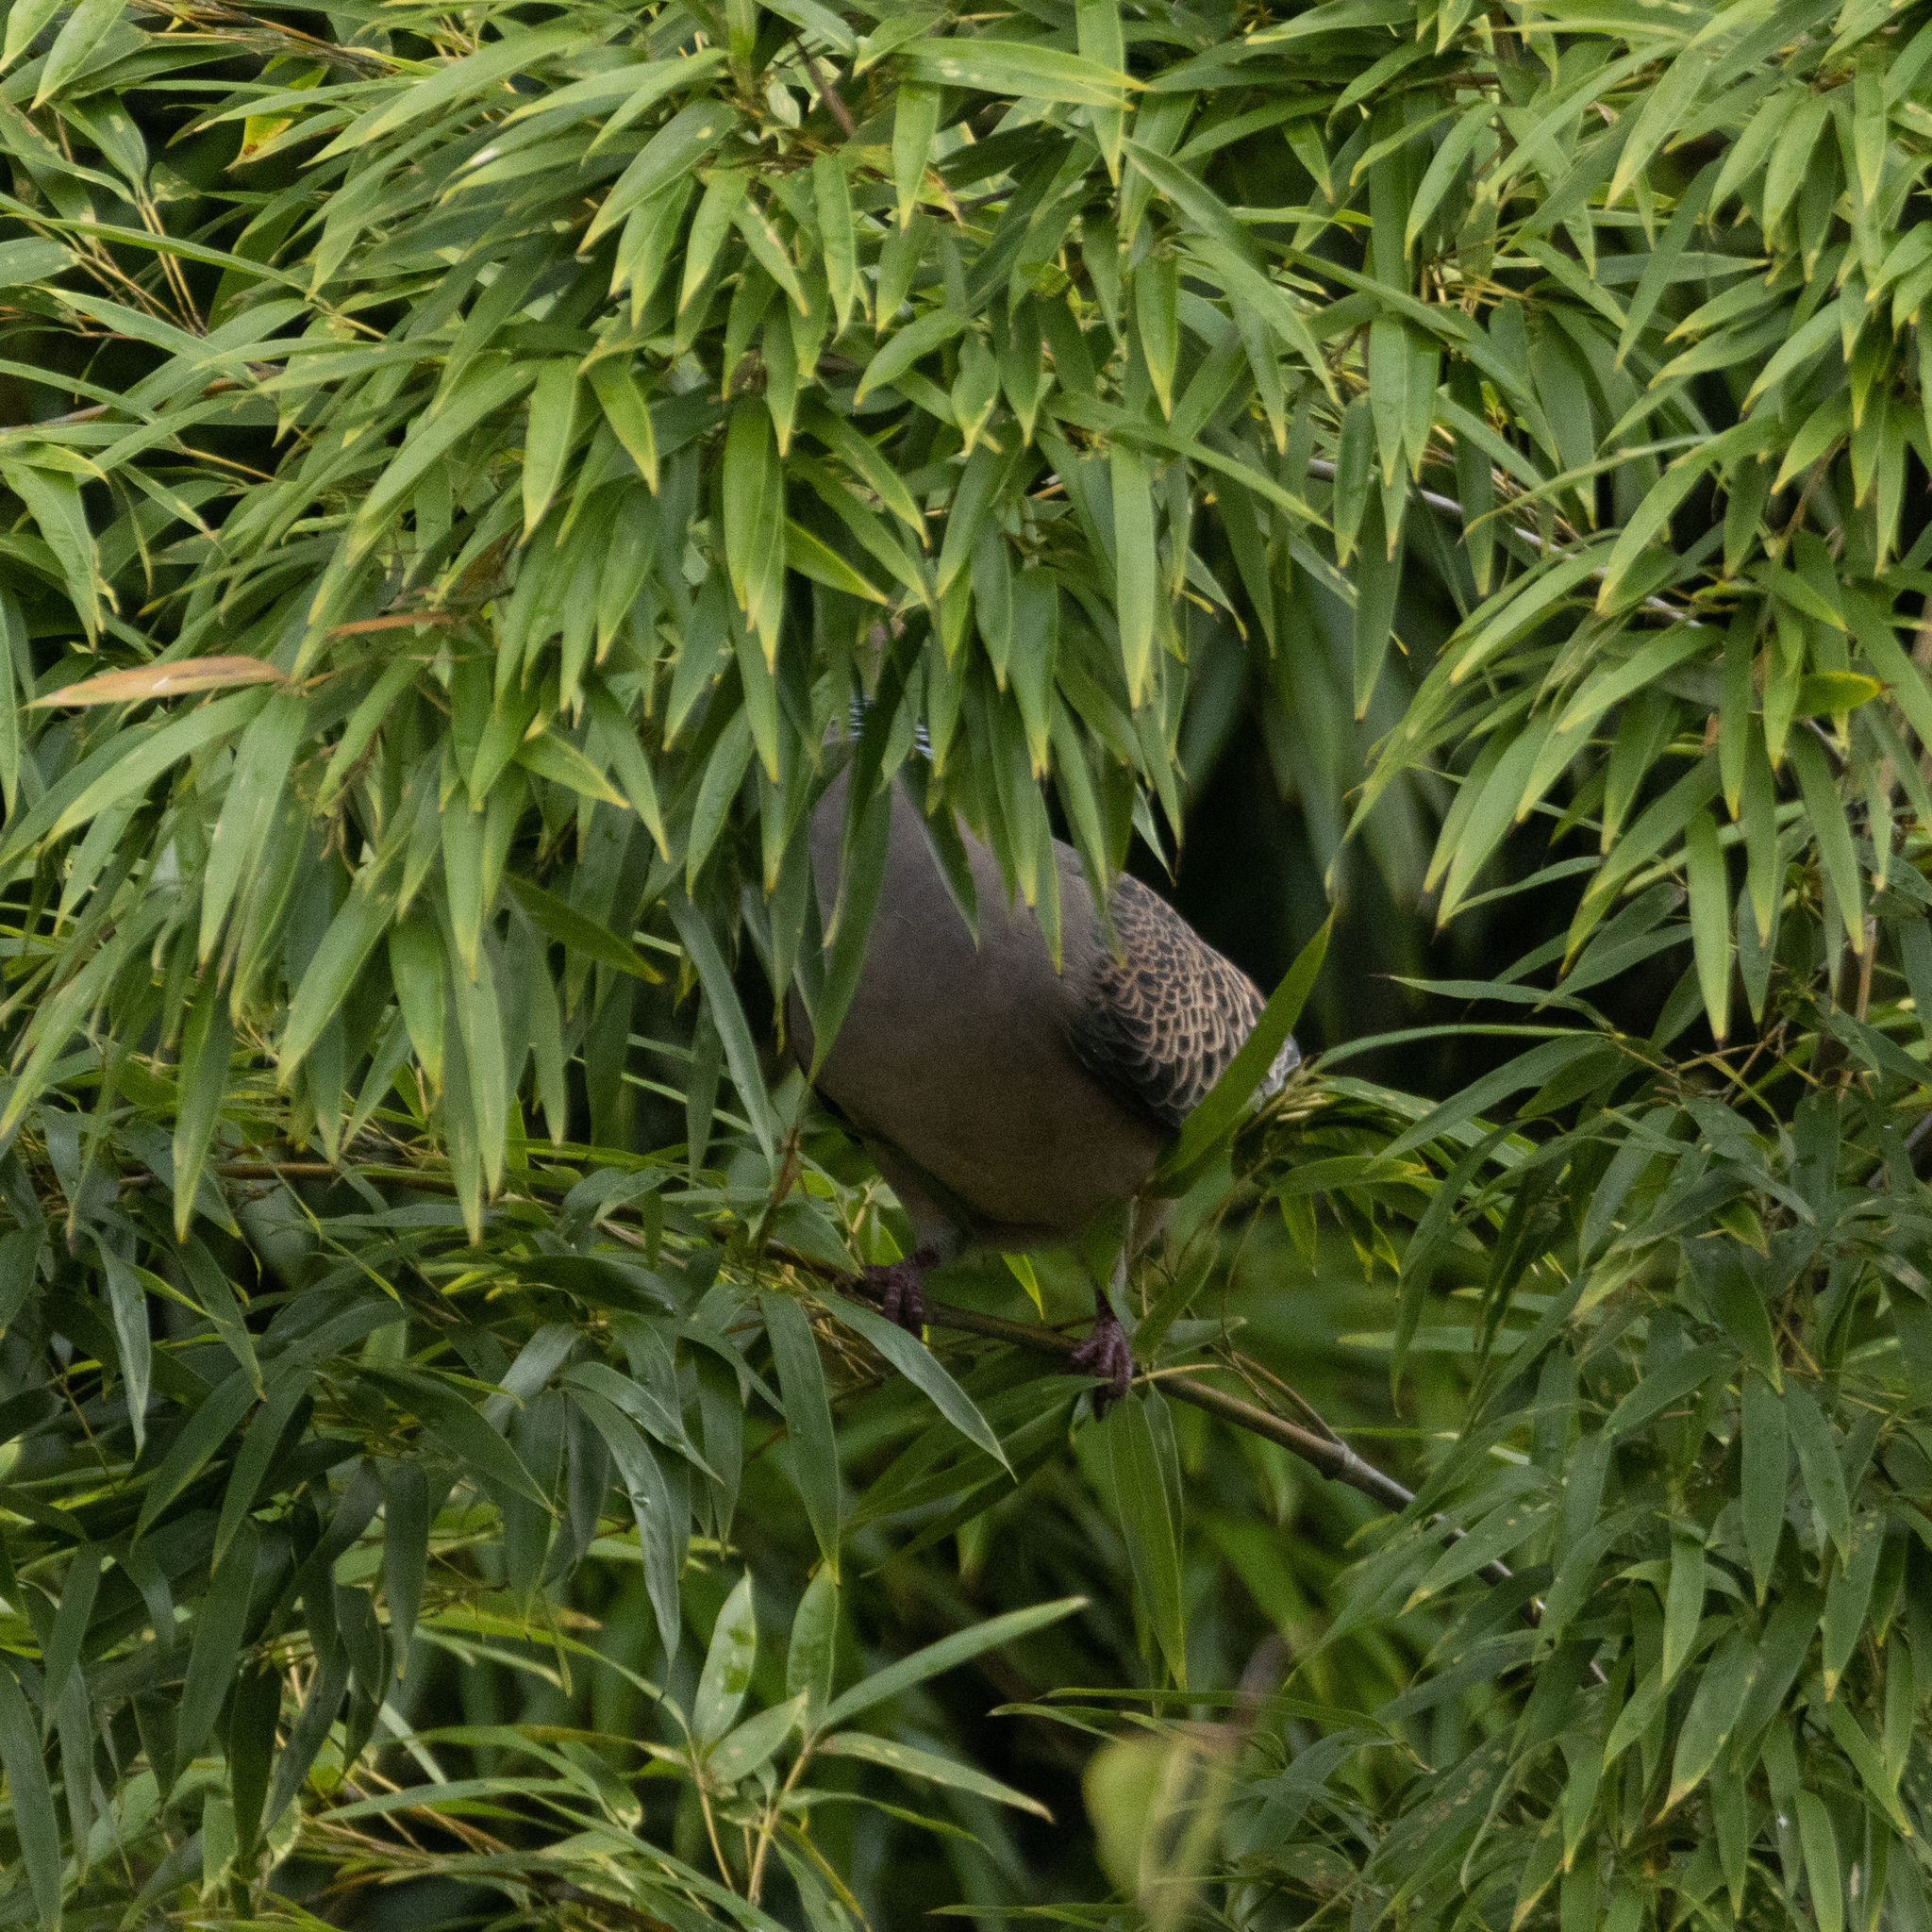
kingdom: Animalia
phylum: Chordata
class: Aves
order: Columbiformes
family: Columbidae
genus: Streptopelia
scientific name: Streptopelia orientalis
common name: Oriental turtle dove
